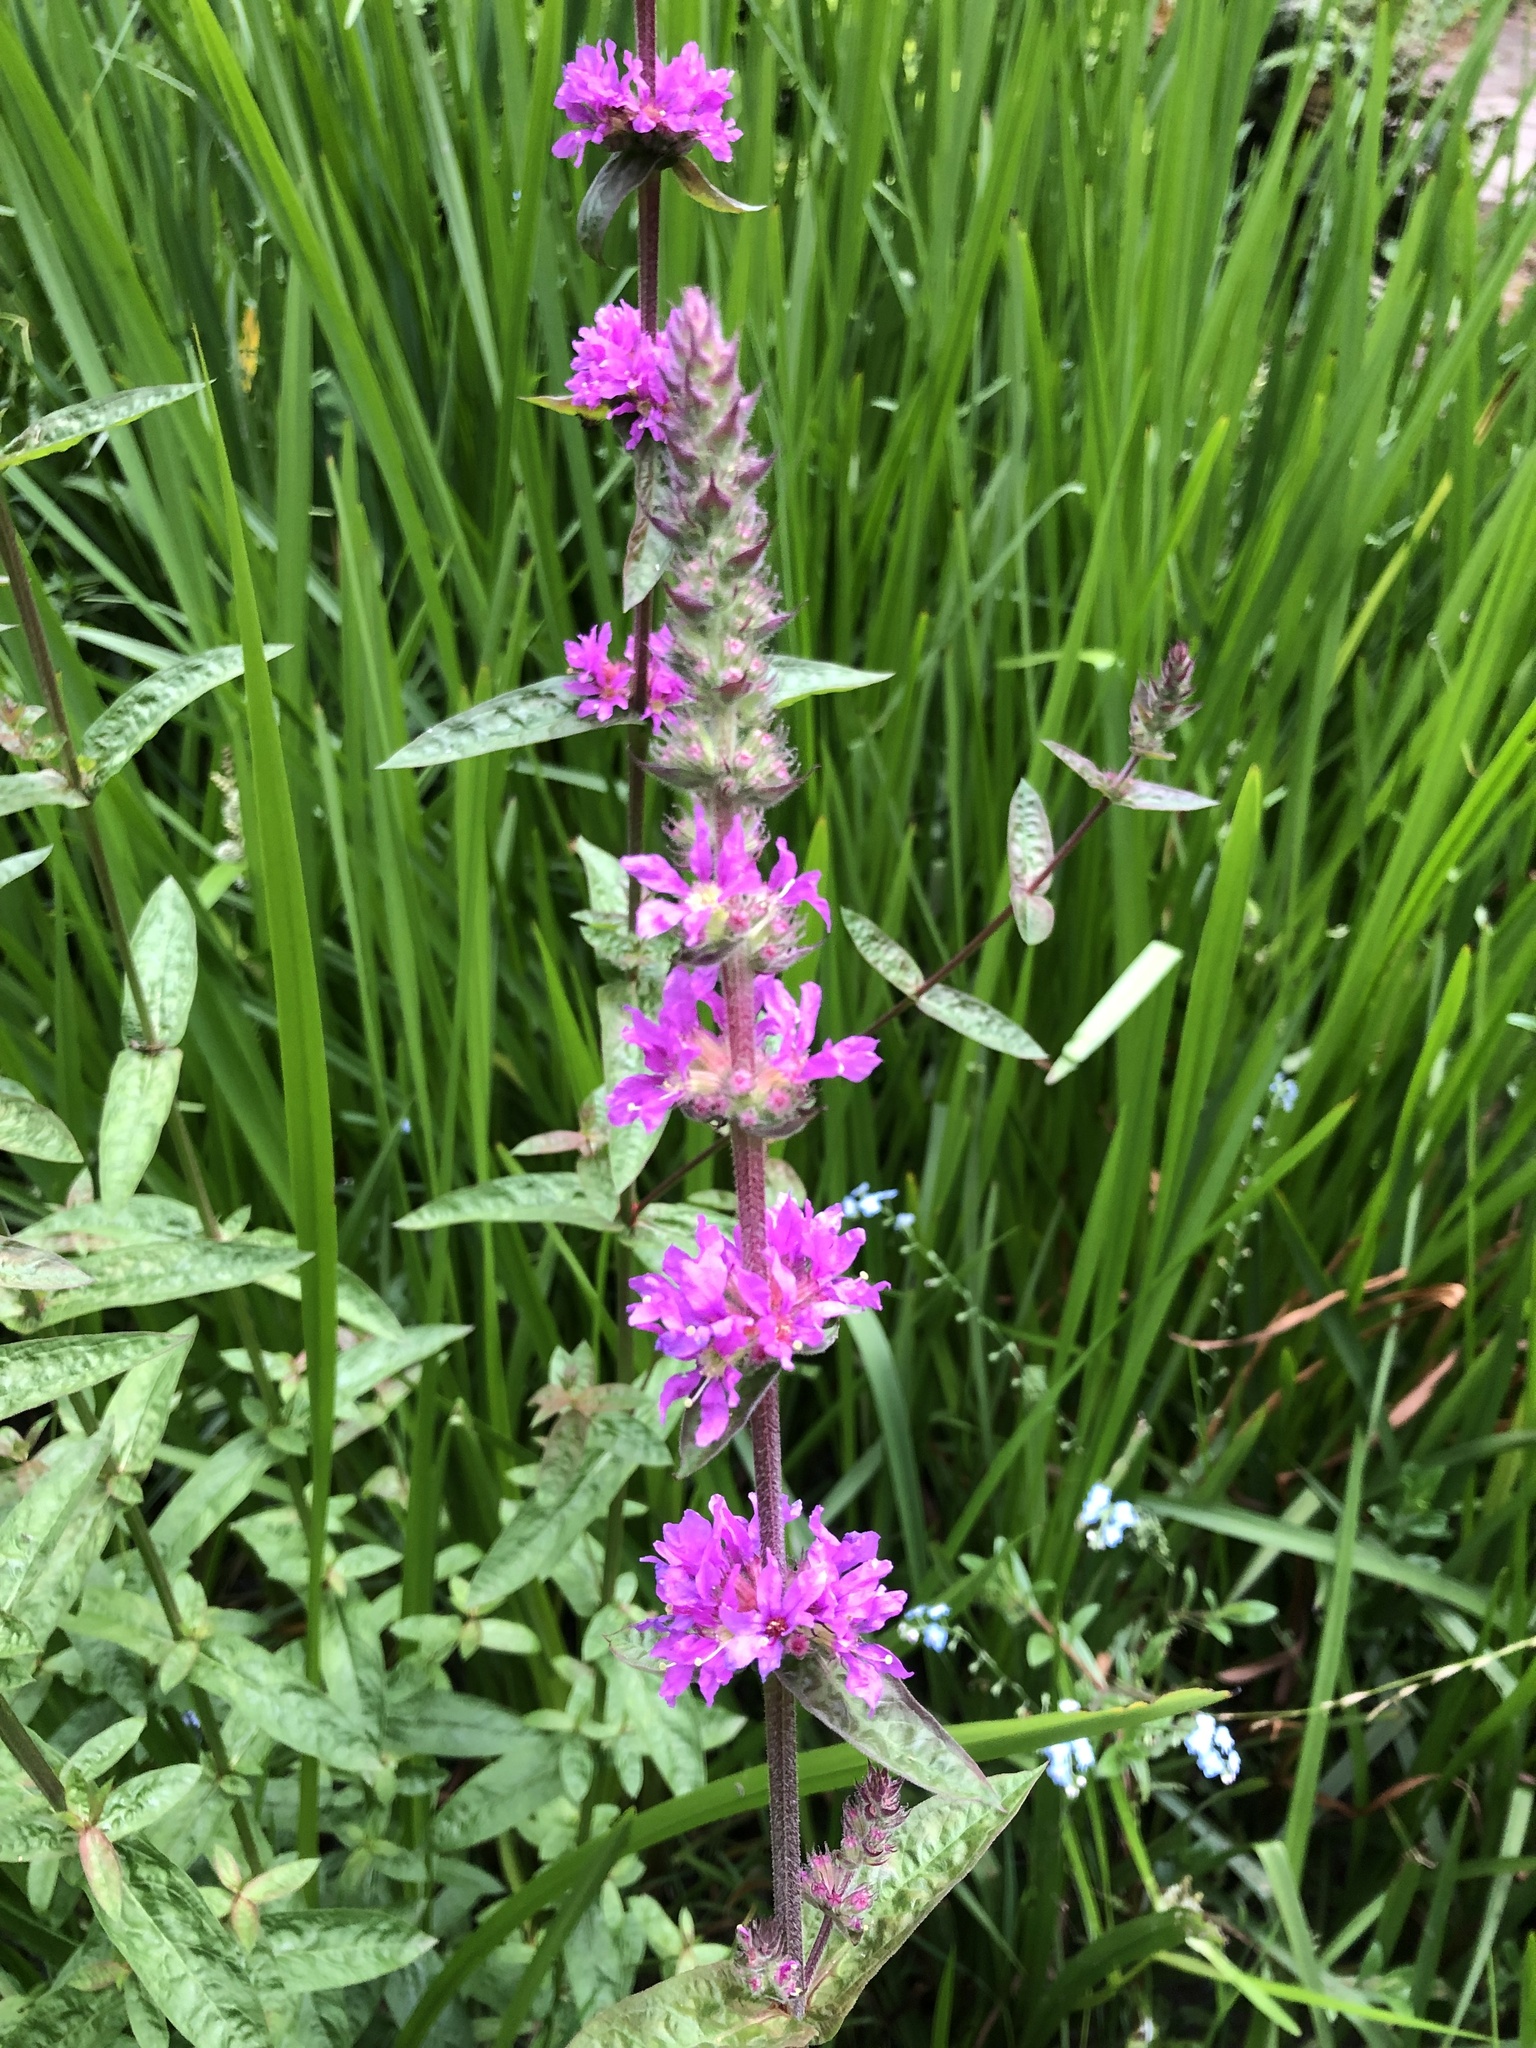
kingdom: Plantae
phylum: Tracheophyta
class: Magnoliopsida
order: Myrtales
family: Lythraceae
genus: Lythrum
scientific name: Lythrum salicaria
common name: Purple loosestrife
